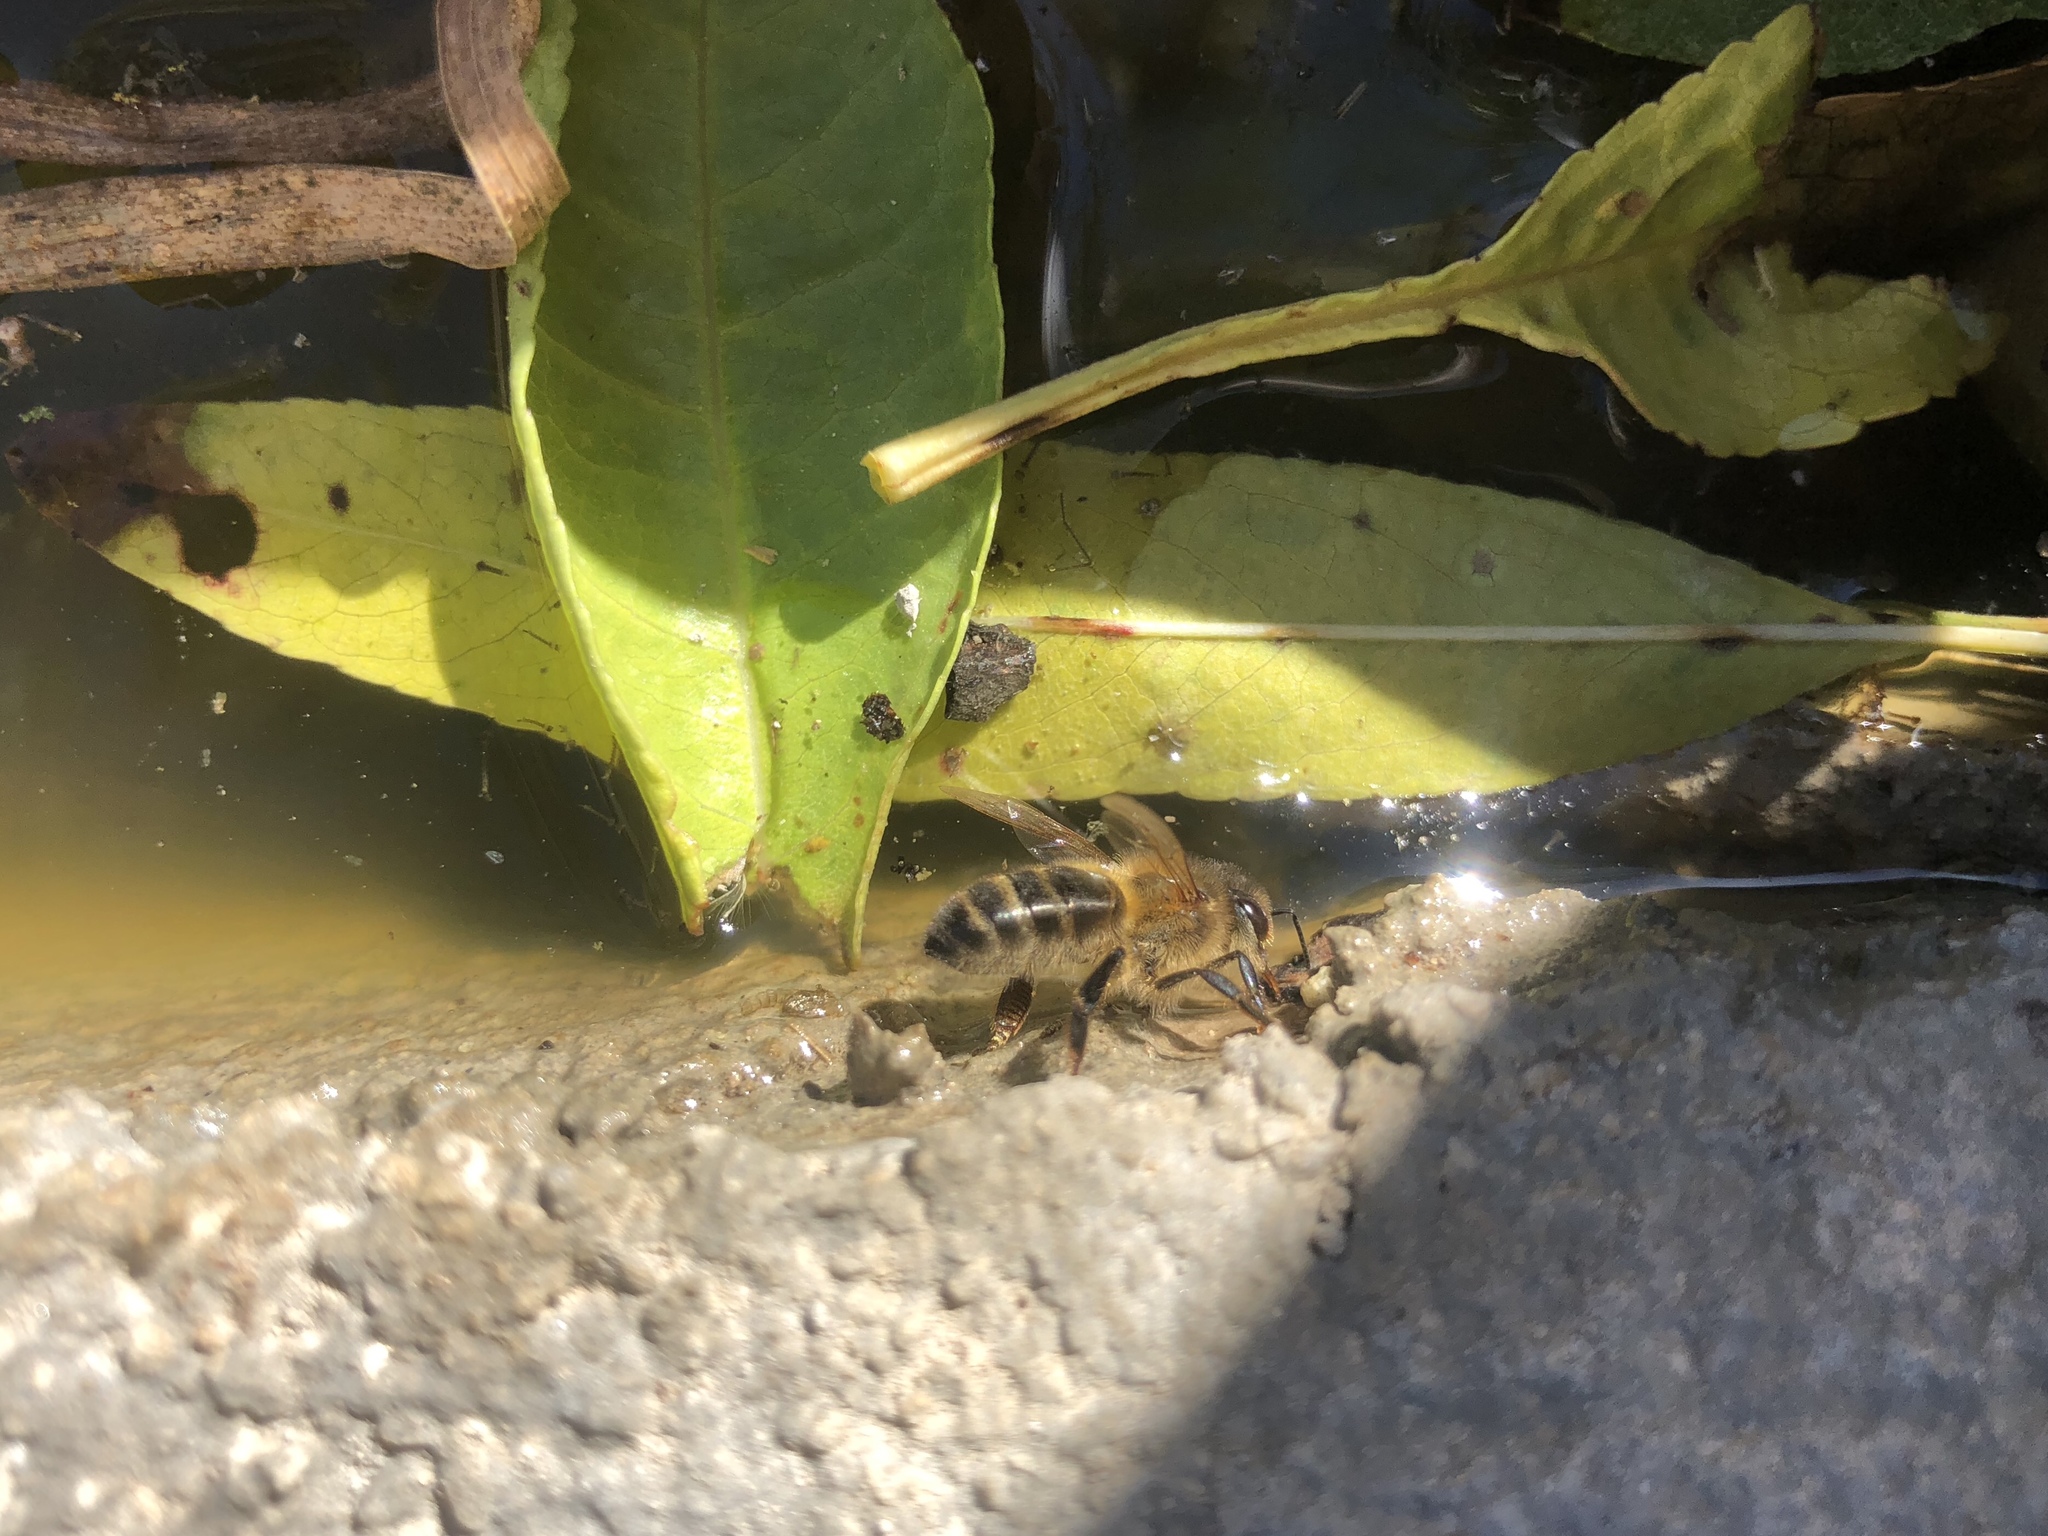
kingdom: Animalia
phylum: Arthropoda
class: Insecta
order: Hymenoptera
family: Apidae
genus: Apis
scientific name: Apis mellifera
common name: Honey bee
